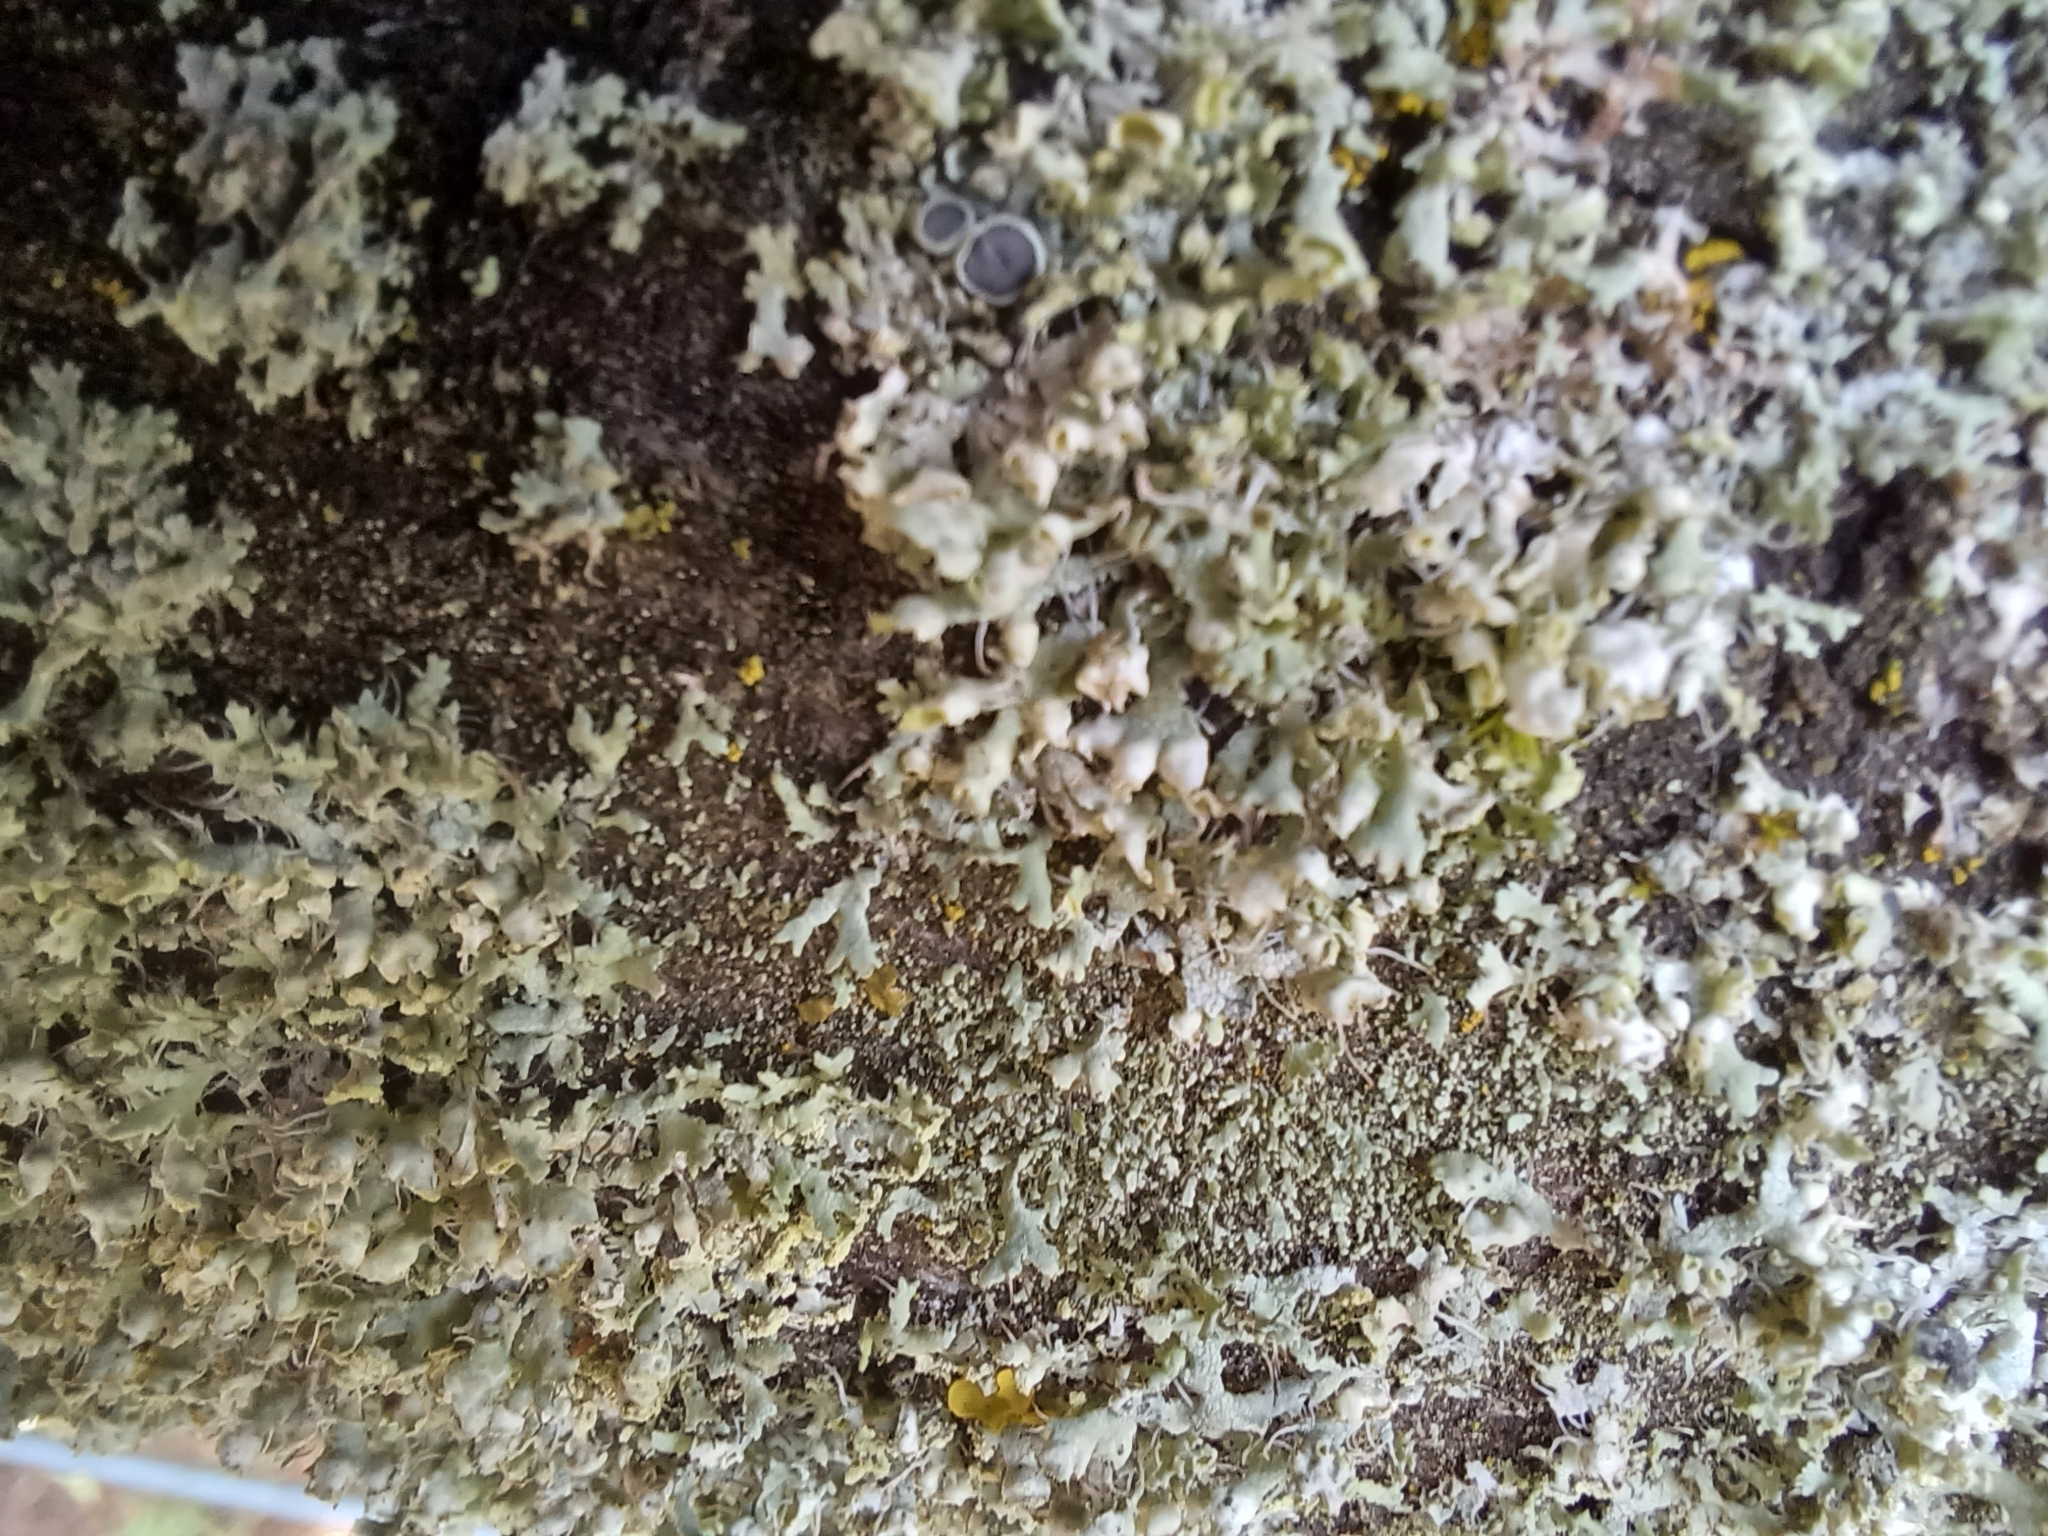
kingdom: Fungi
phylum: Ascomycota
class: Lecanoromycetes
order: Caliciales
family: Physciaceae
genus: Physcia
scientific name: Physcia adscendens
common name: Hooded rosette lichen
